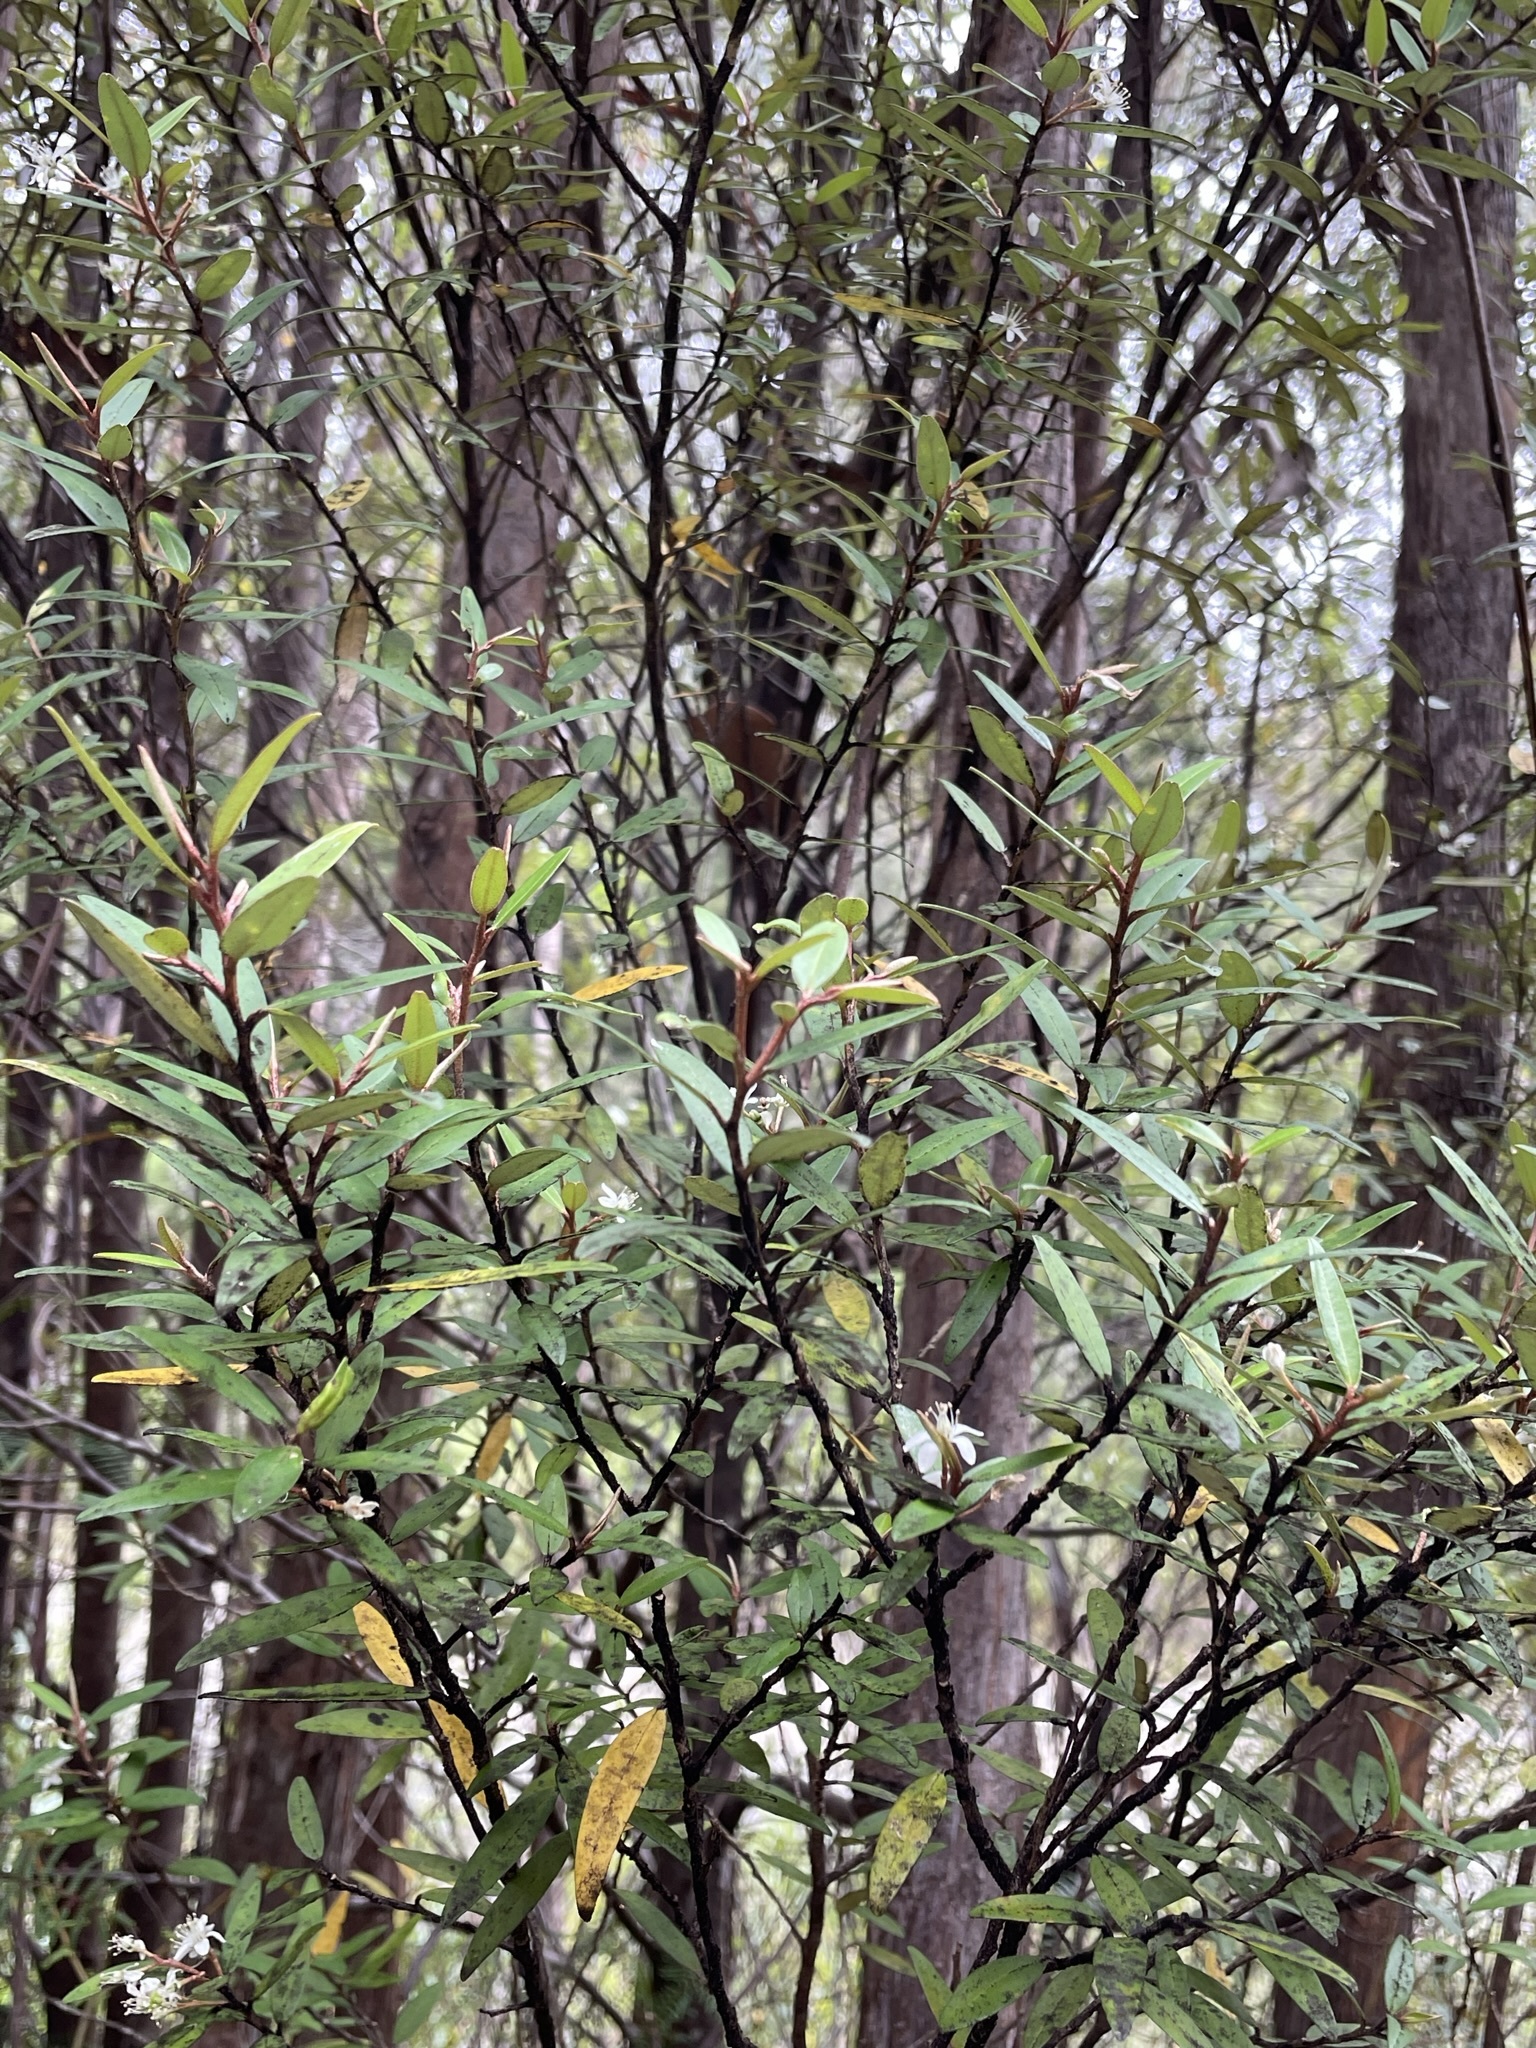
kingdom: Plantae
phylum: Tracheophyta
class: Magnoliopsida
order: Sapindales
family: Rutaceae
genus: Nematolepis
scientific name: Nematolepis squamea
